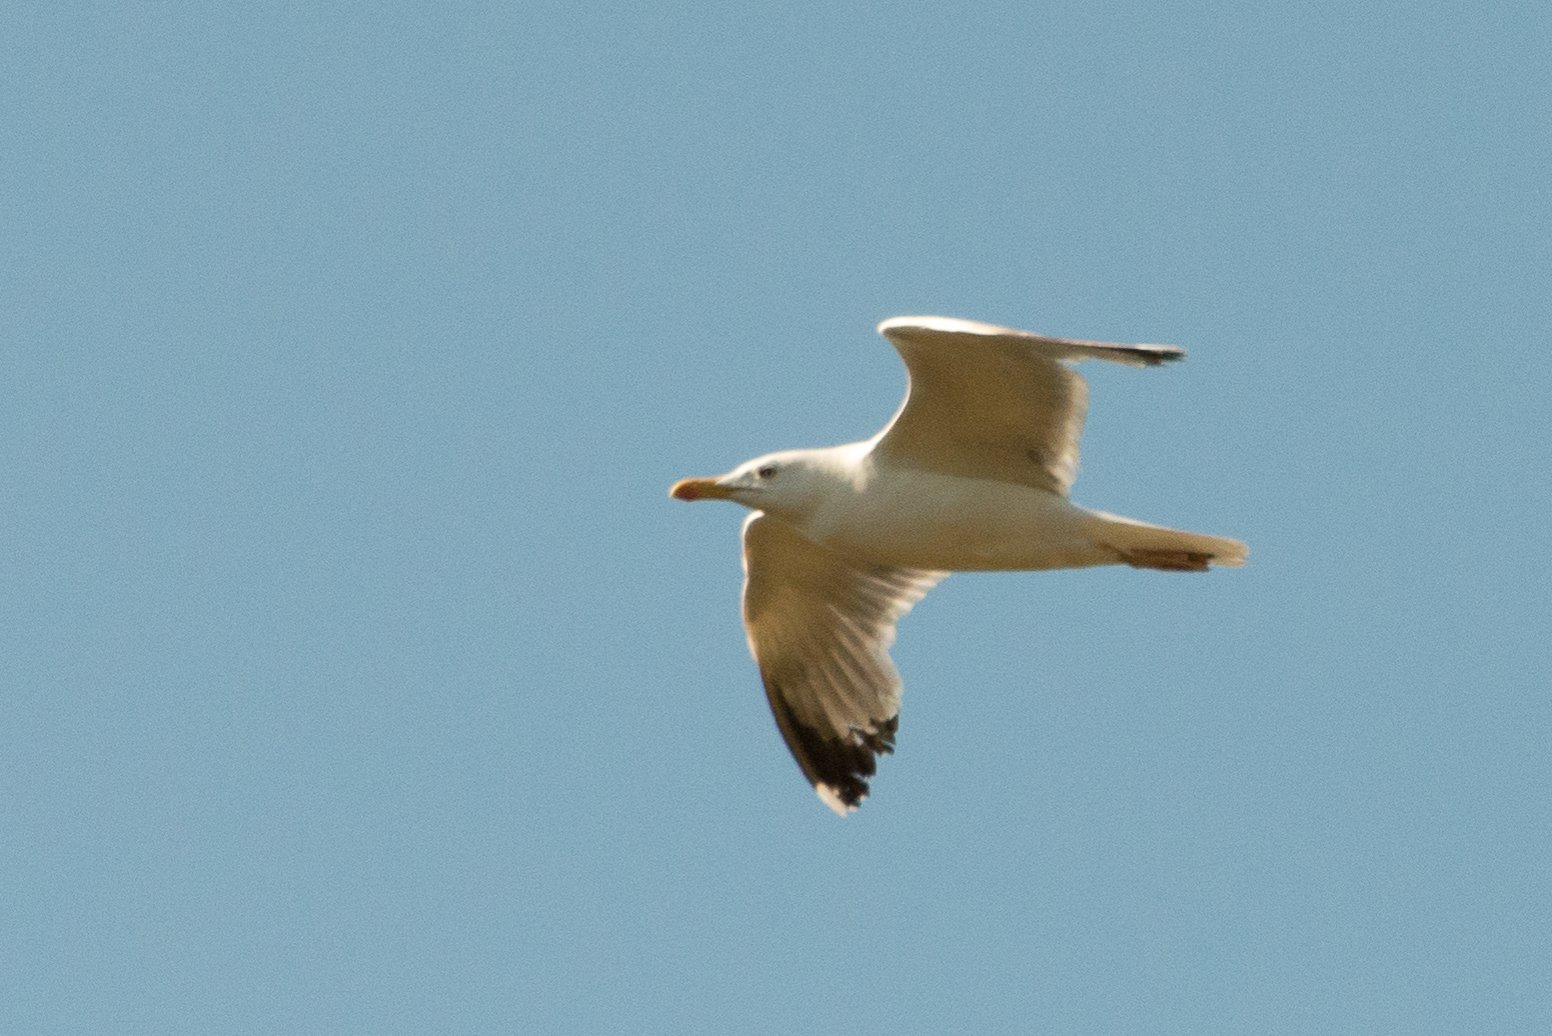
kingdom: Animalia
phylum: Chordata
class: Aves
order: Charadriiformes
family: Laridae
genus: Larus
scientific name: Larus michahellis
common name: Yellow-legged gull
